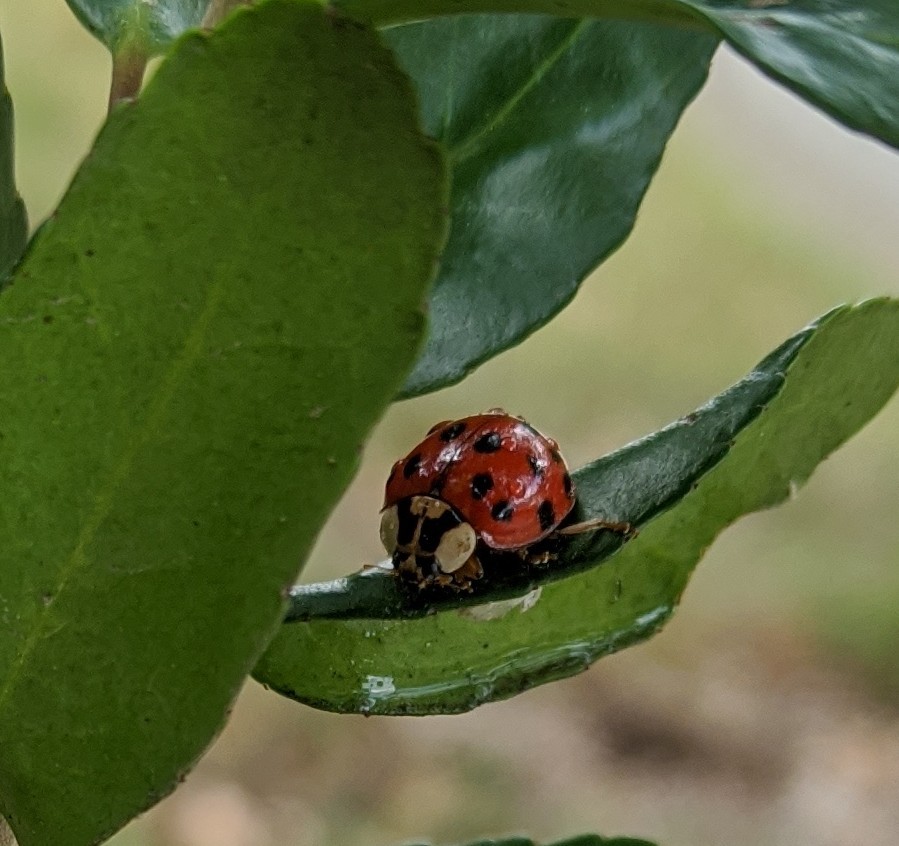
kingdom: Animalia
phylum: Arthropoda
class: Insecta
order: Coleoptera
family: Coccinellidae
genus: Harmonia
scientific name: Harmonia axyridis
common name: Harlequin ladybird
